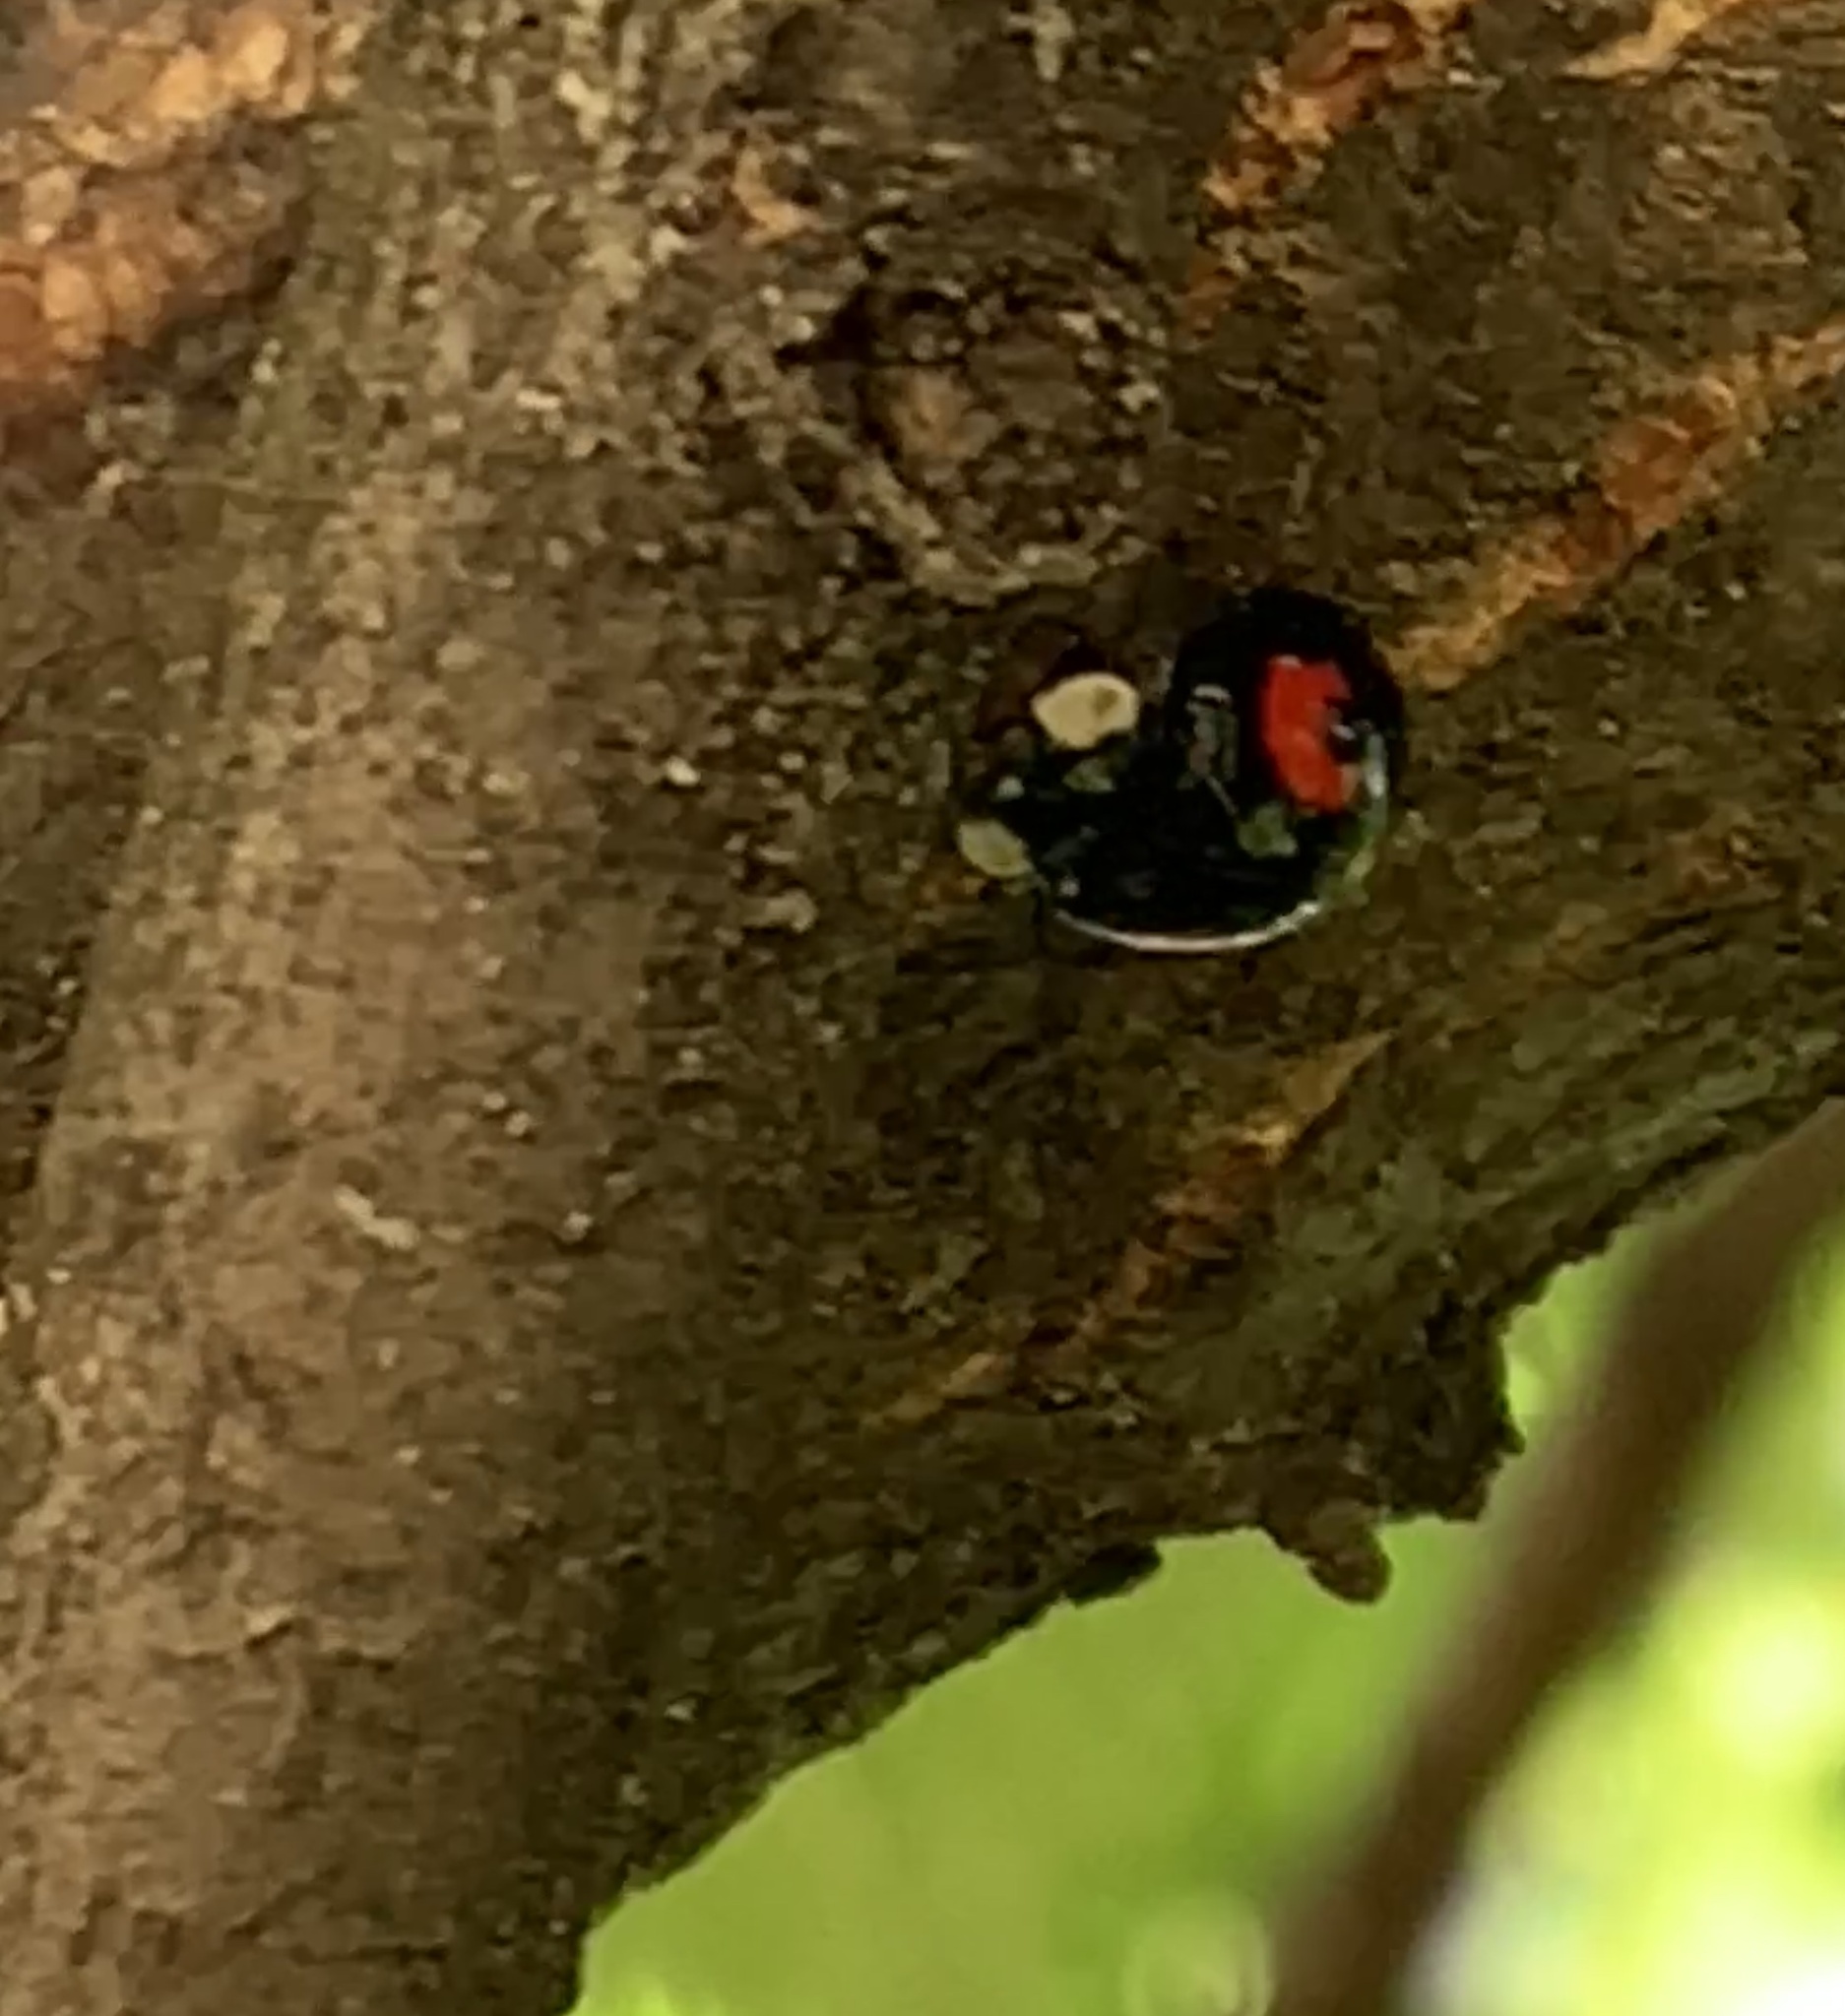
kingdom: Animalia
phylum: Arthropoda
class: Insecta
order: Coleoptera
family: Coccinellidae
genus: Harmonia
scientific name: Harmonia axyridis
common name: Harlequin ladybird
